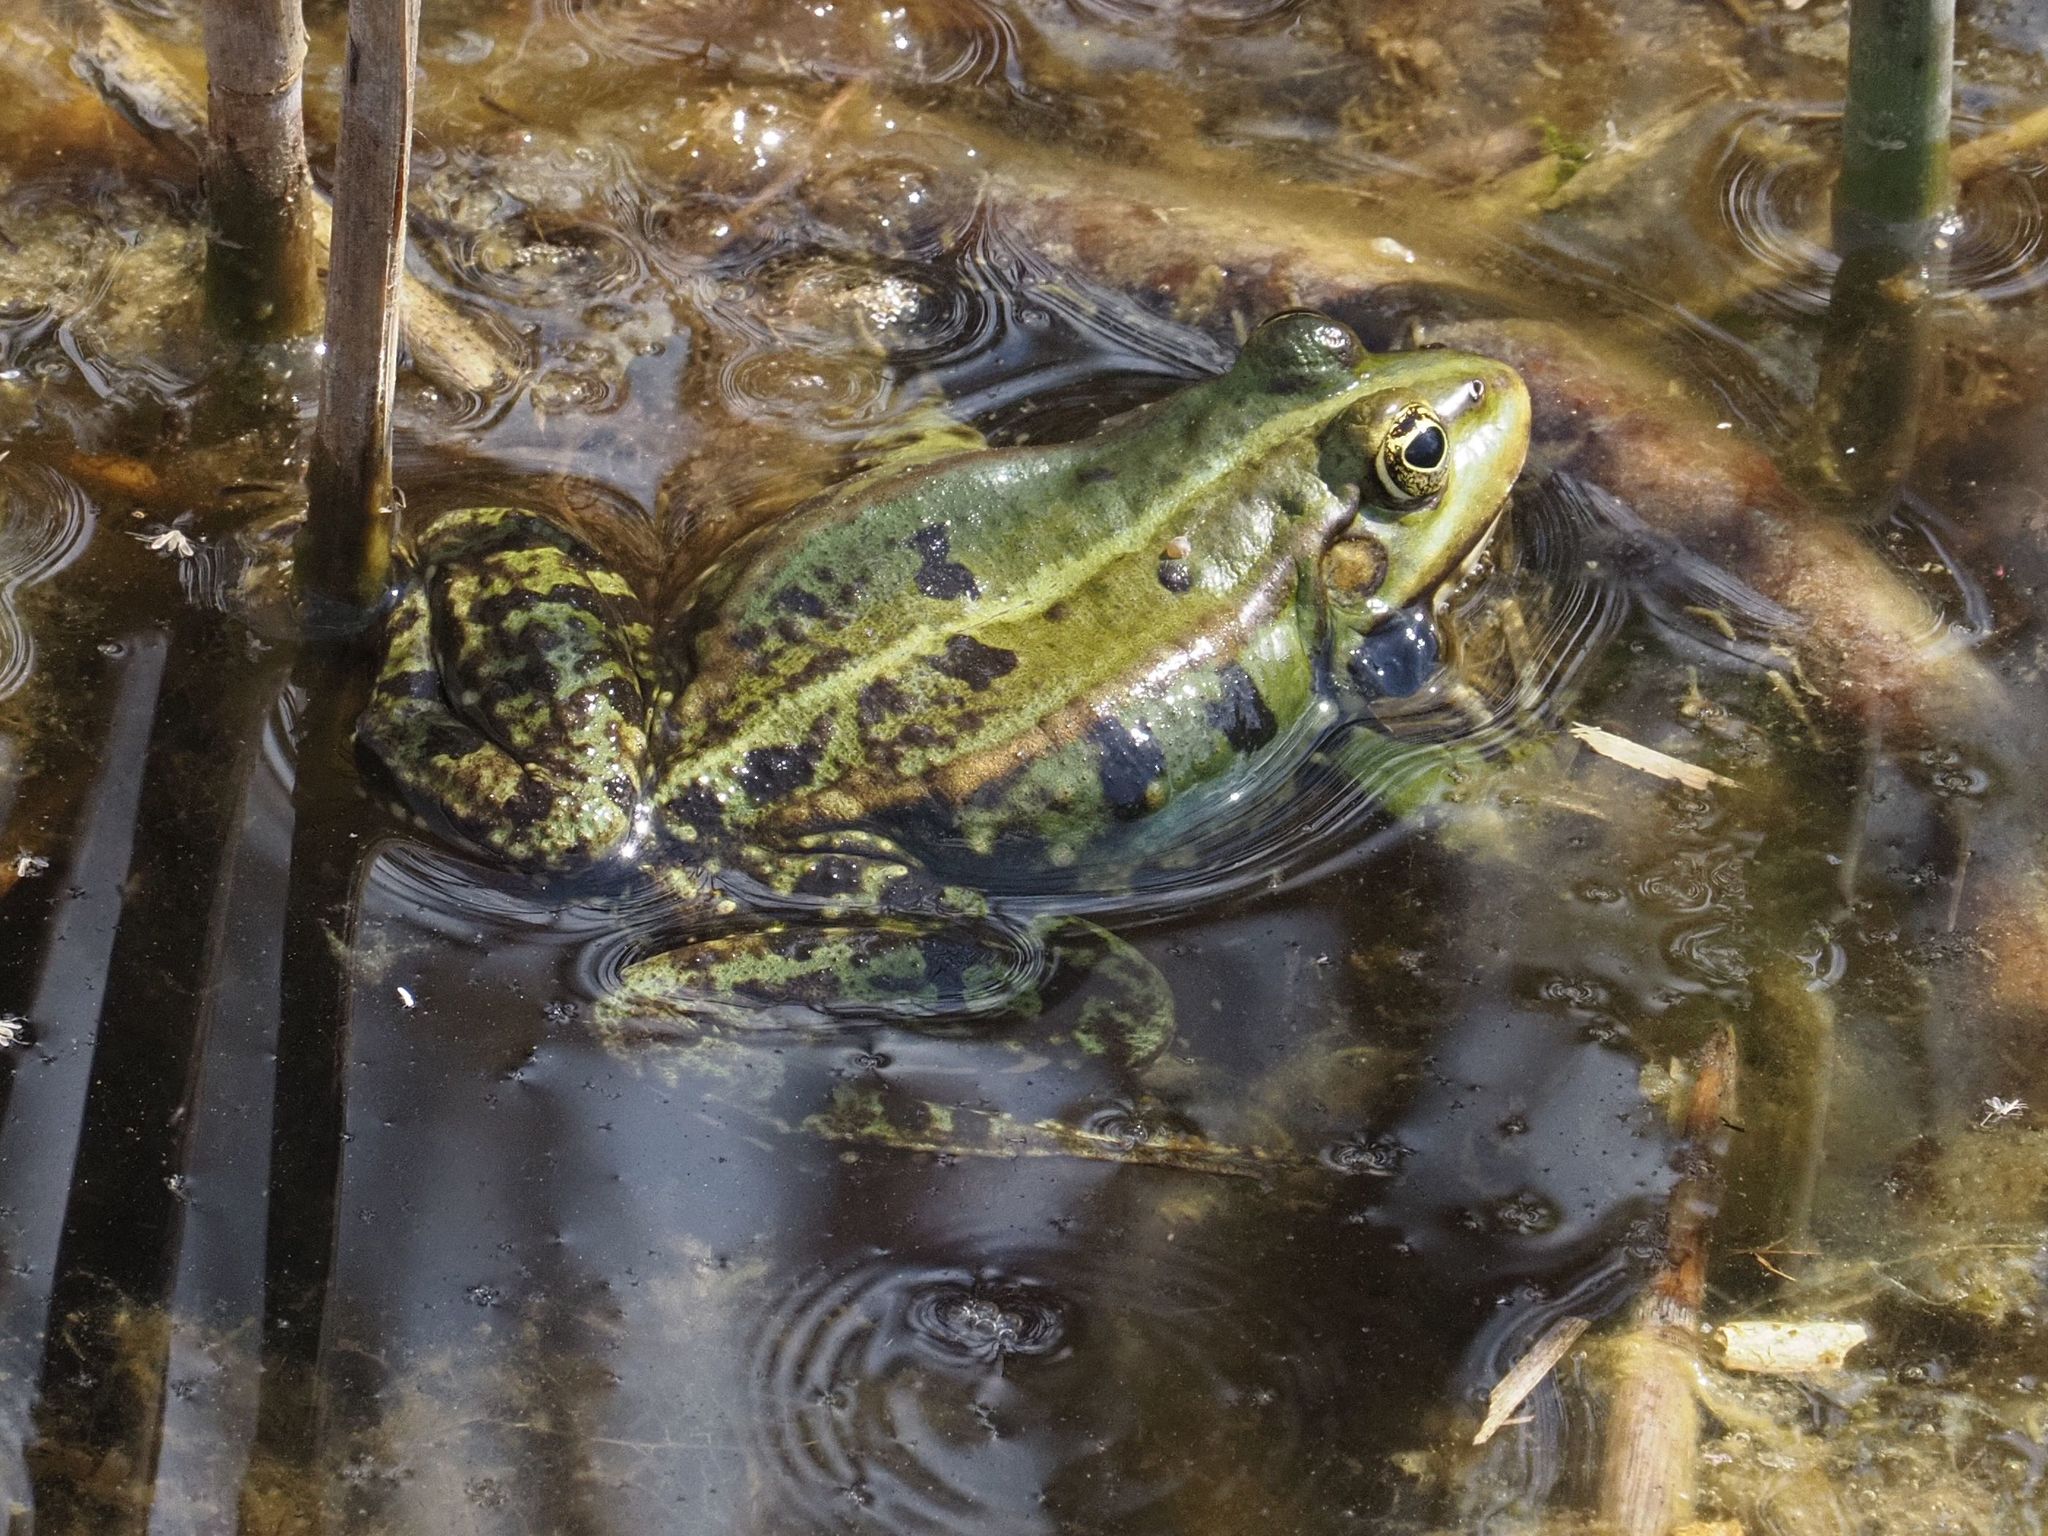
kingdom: Animalia
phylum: Chordata
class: Amphibia
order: Anura
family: Ranidae
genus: Pelophylax
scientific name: Pelophylax
